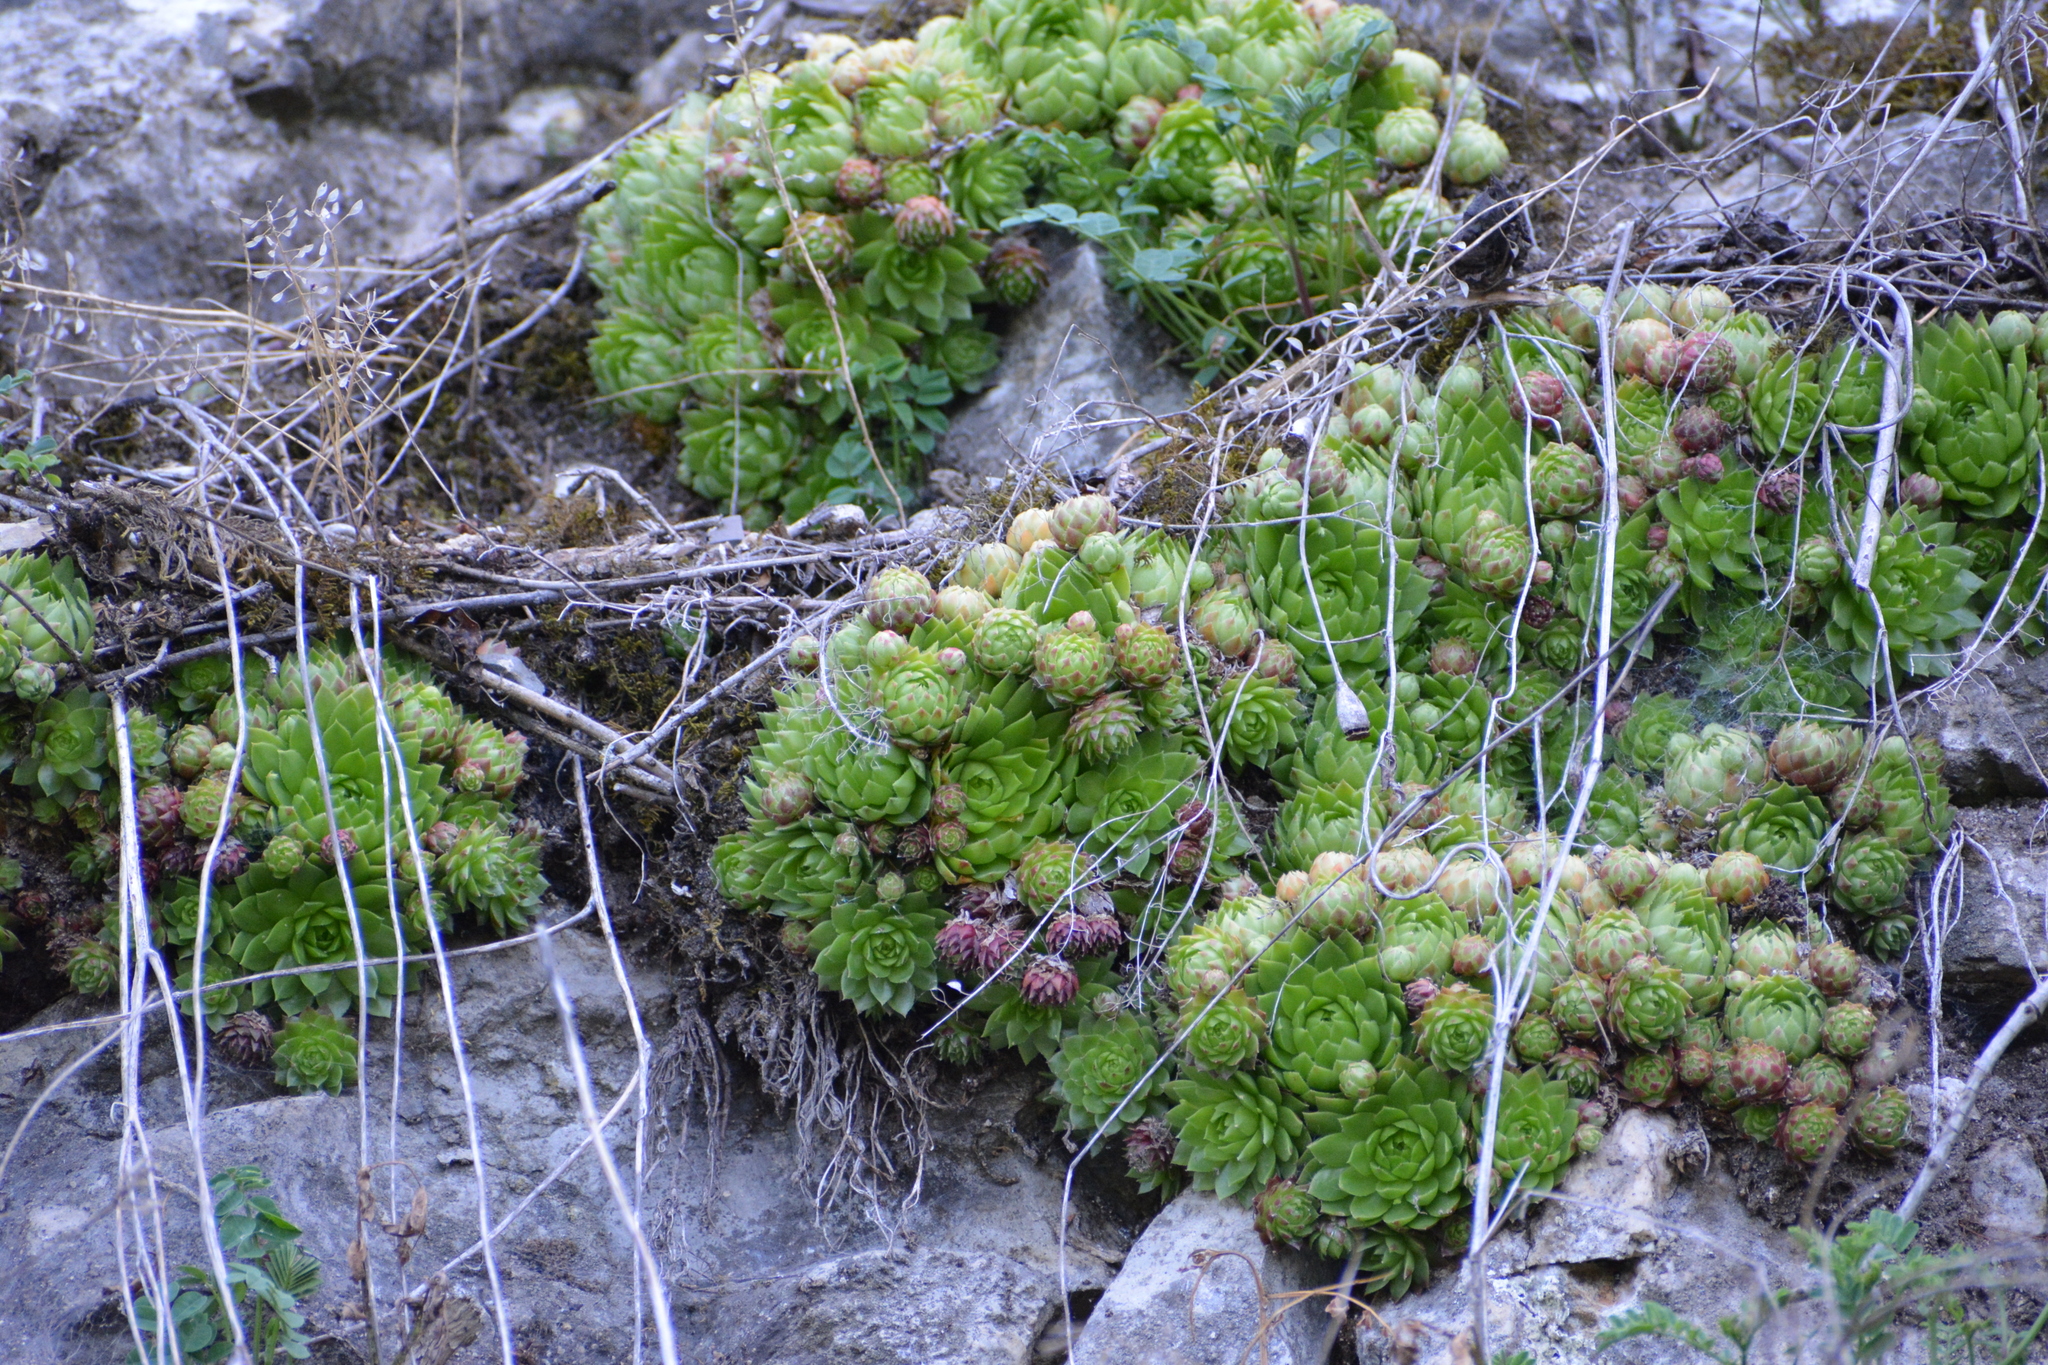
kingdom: Plantae
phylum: Tracheophyta
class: Magnoliopsida
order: Saxifragales
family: Crassulaceae
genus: Sempervivum
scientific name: Sempervivum globiferum
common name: Rolling hen-and-chicks
